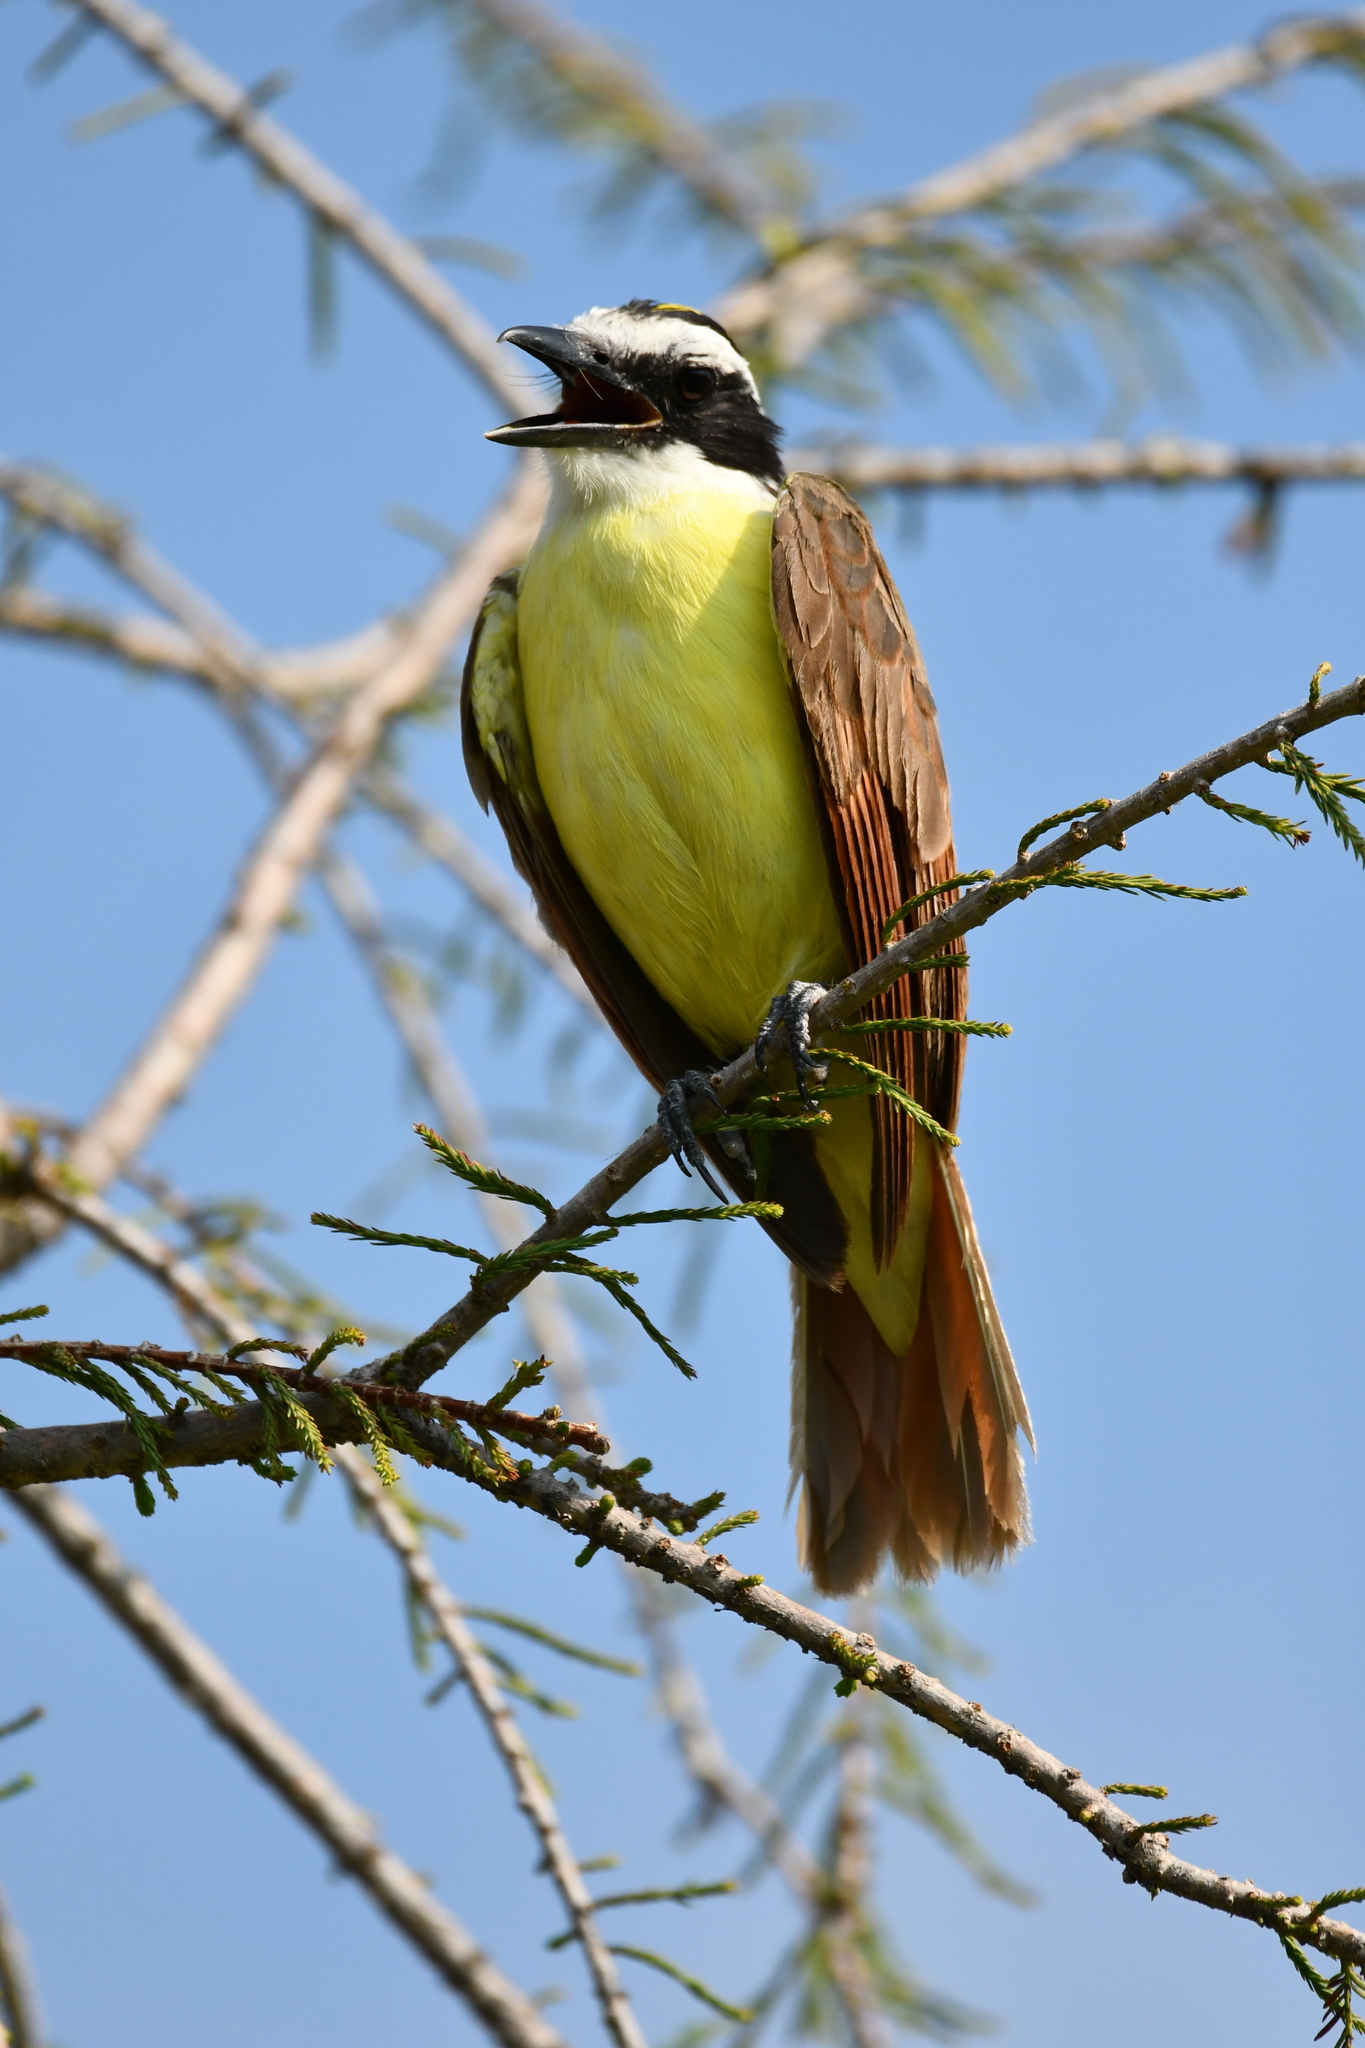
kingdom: Animalia
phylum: Chordata
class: Aves
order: Passeriformes
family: Tyrannidae
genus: Pitangus
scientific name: Pitangus sulphuratus
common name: Great kiskadee
